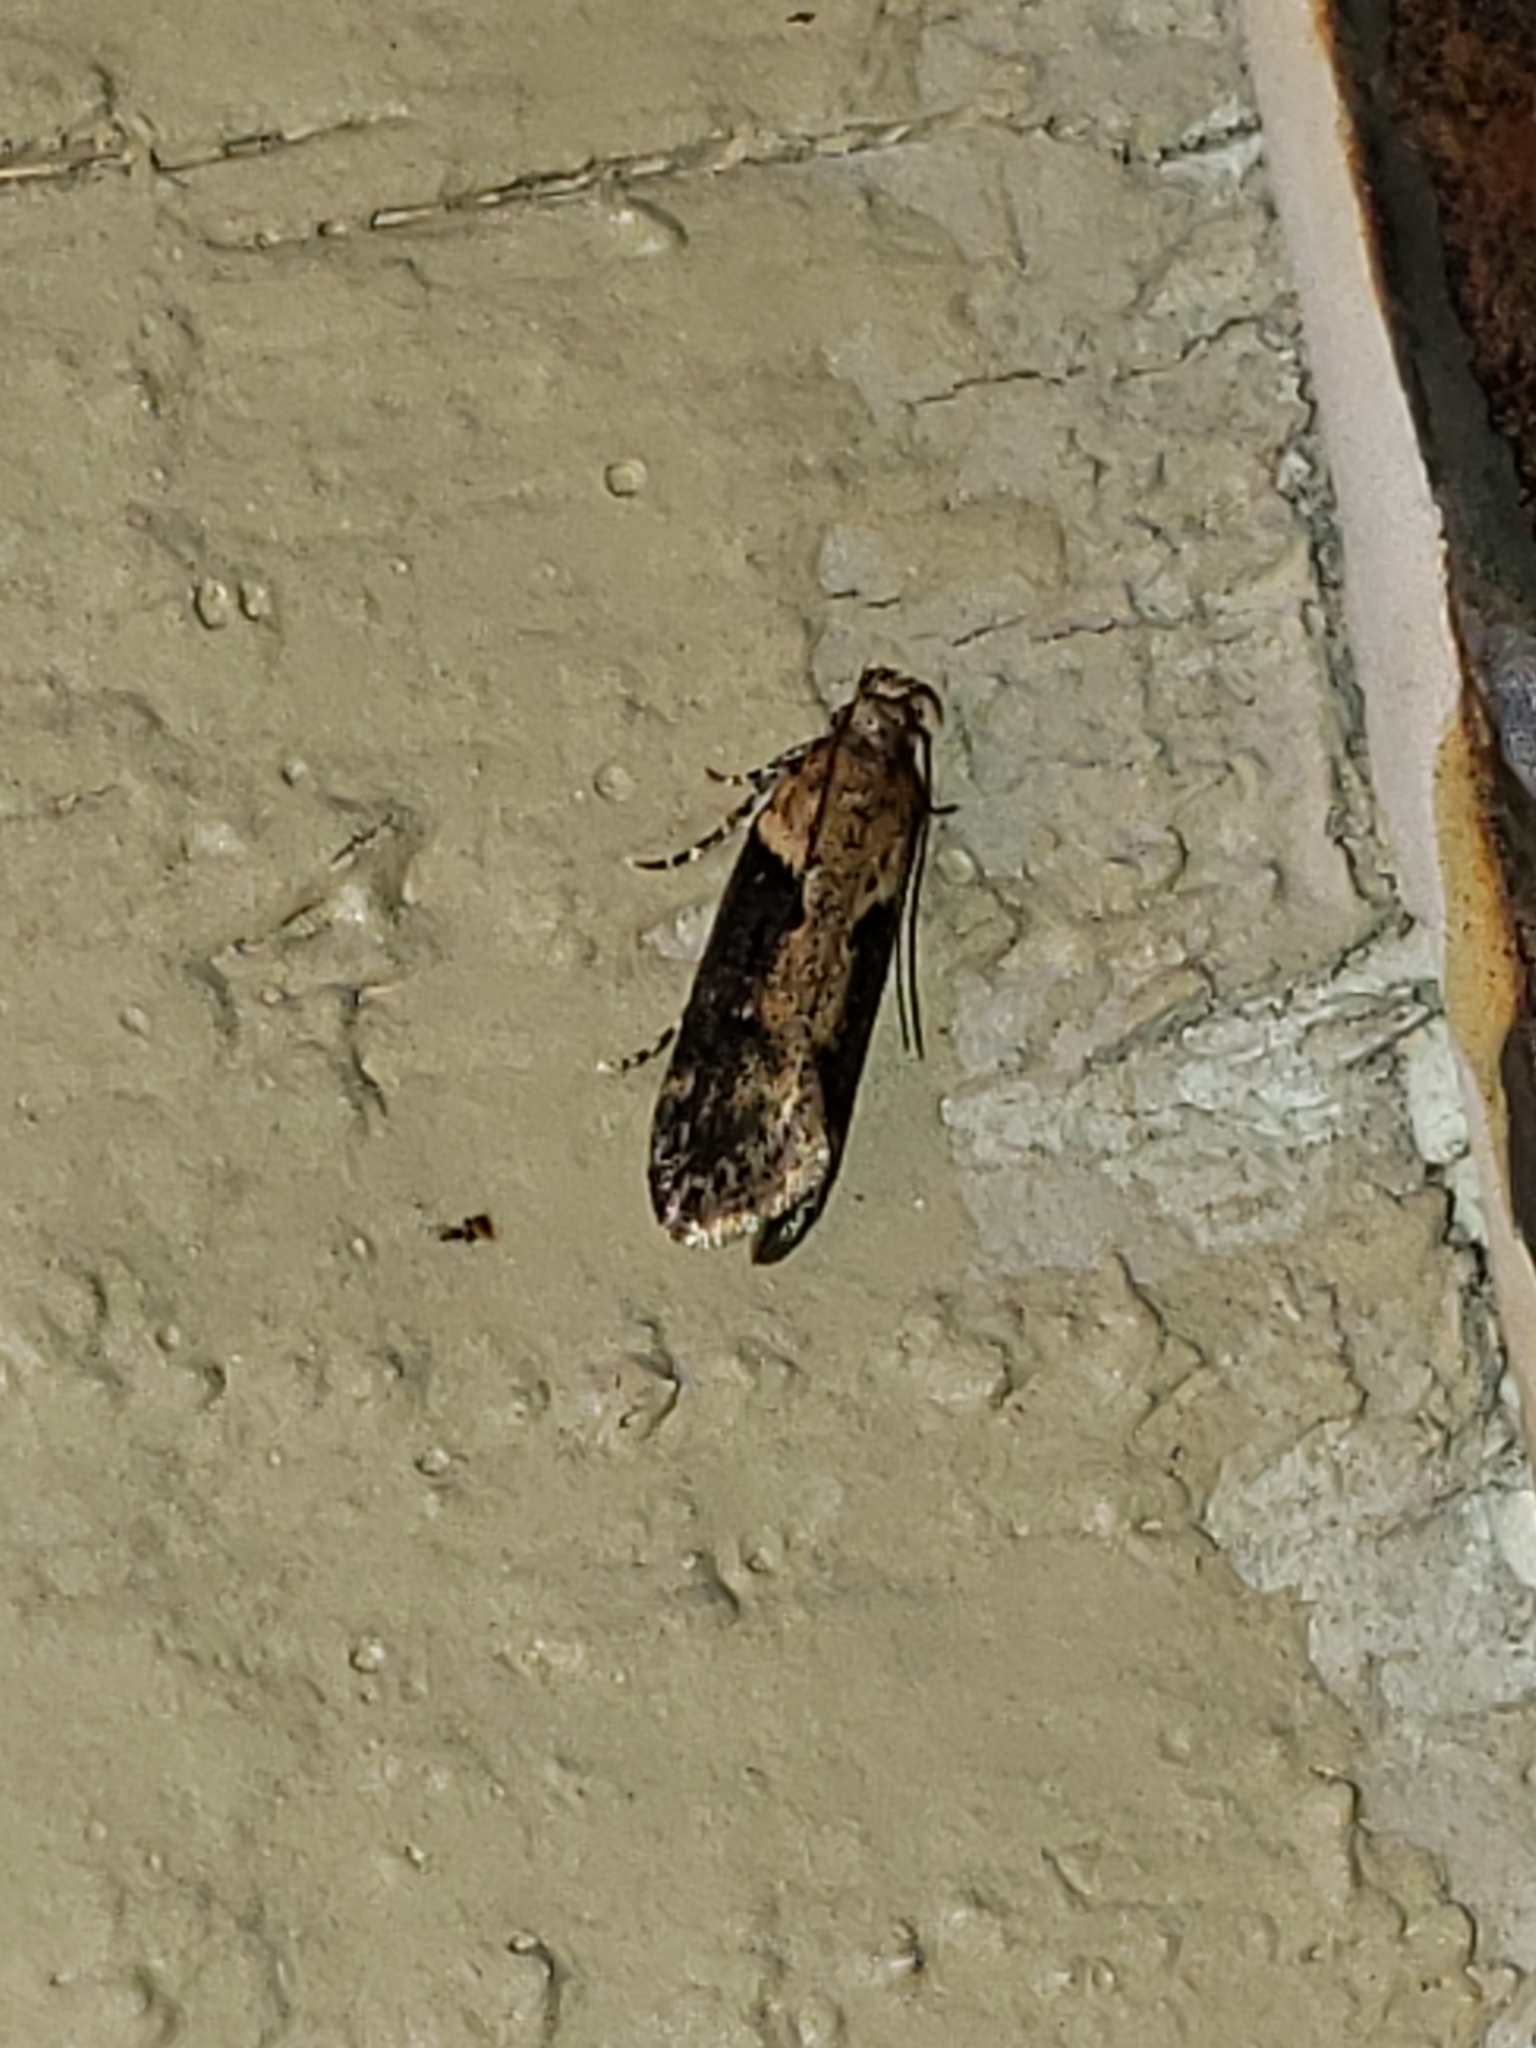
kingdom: Animalia
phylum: Arthropoda
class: Insecta
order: Lepidoptera
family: Gelechiidae
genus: Chionodes
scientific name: Chionodes mediofuscella
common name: Black-smudged chionodes moth
